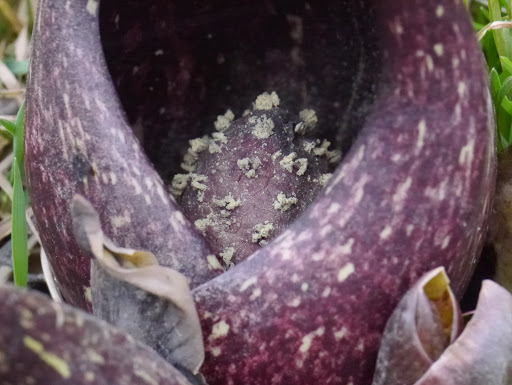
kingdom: Plantae
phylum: Tracheophyta
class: Liliopsida
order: Alismatales
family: Araceae
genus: Symplocarpus
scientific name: Symplocarpus foetidus
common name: Eastern skunk cabbage
